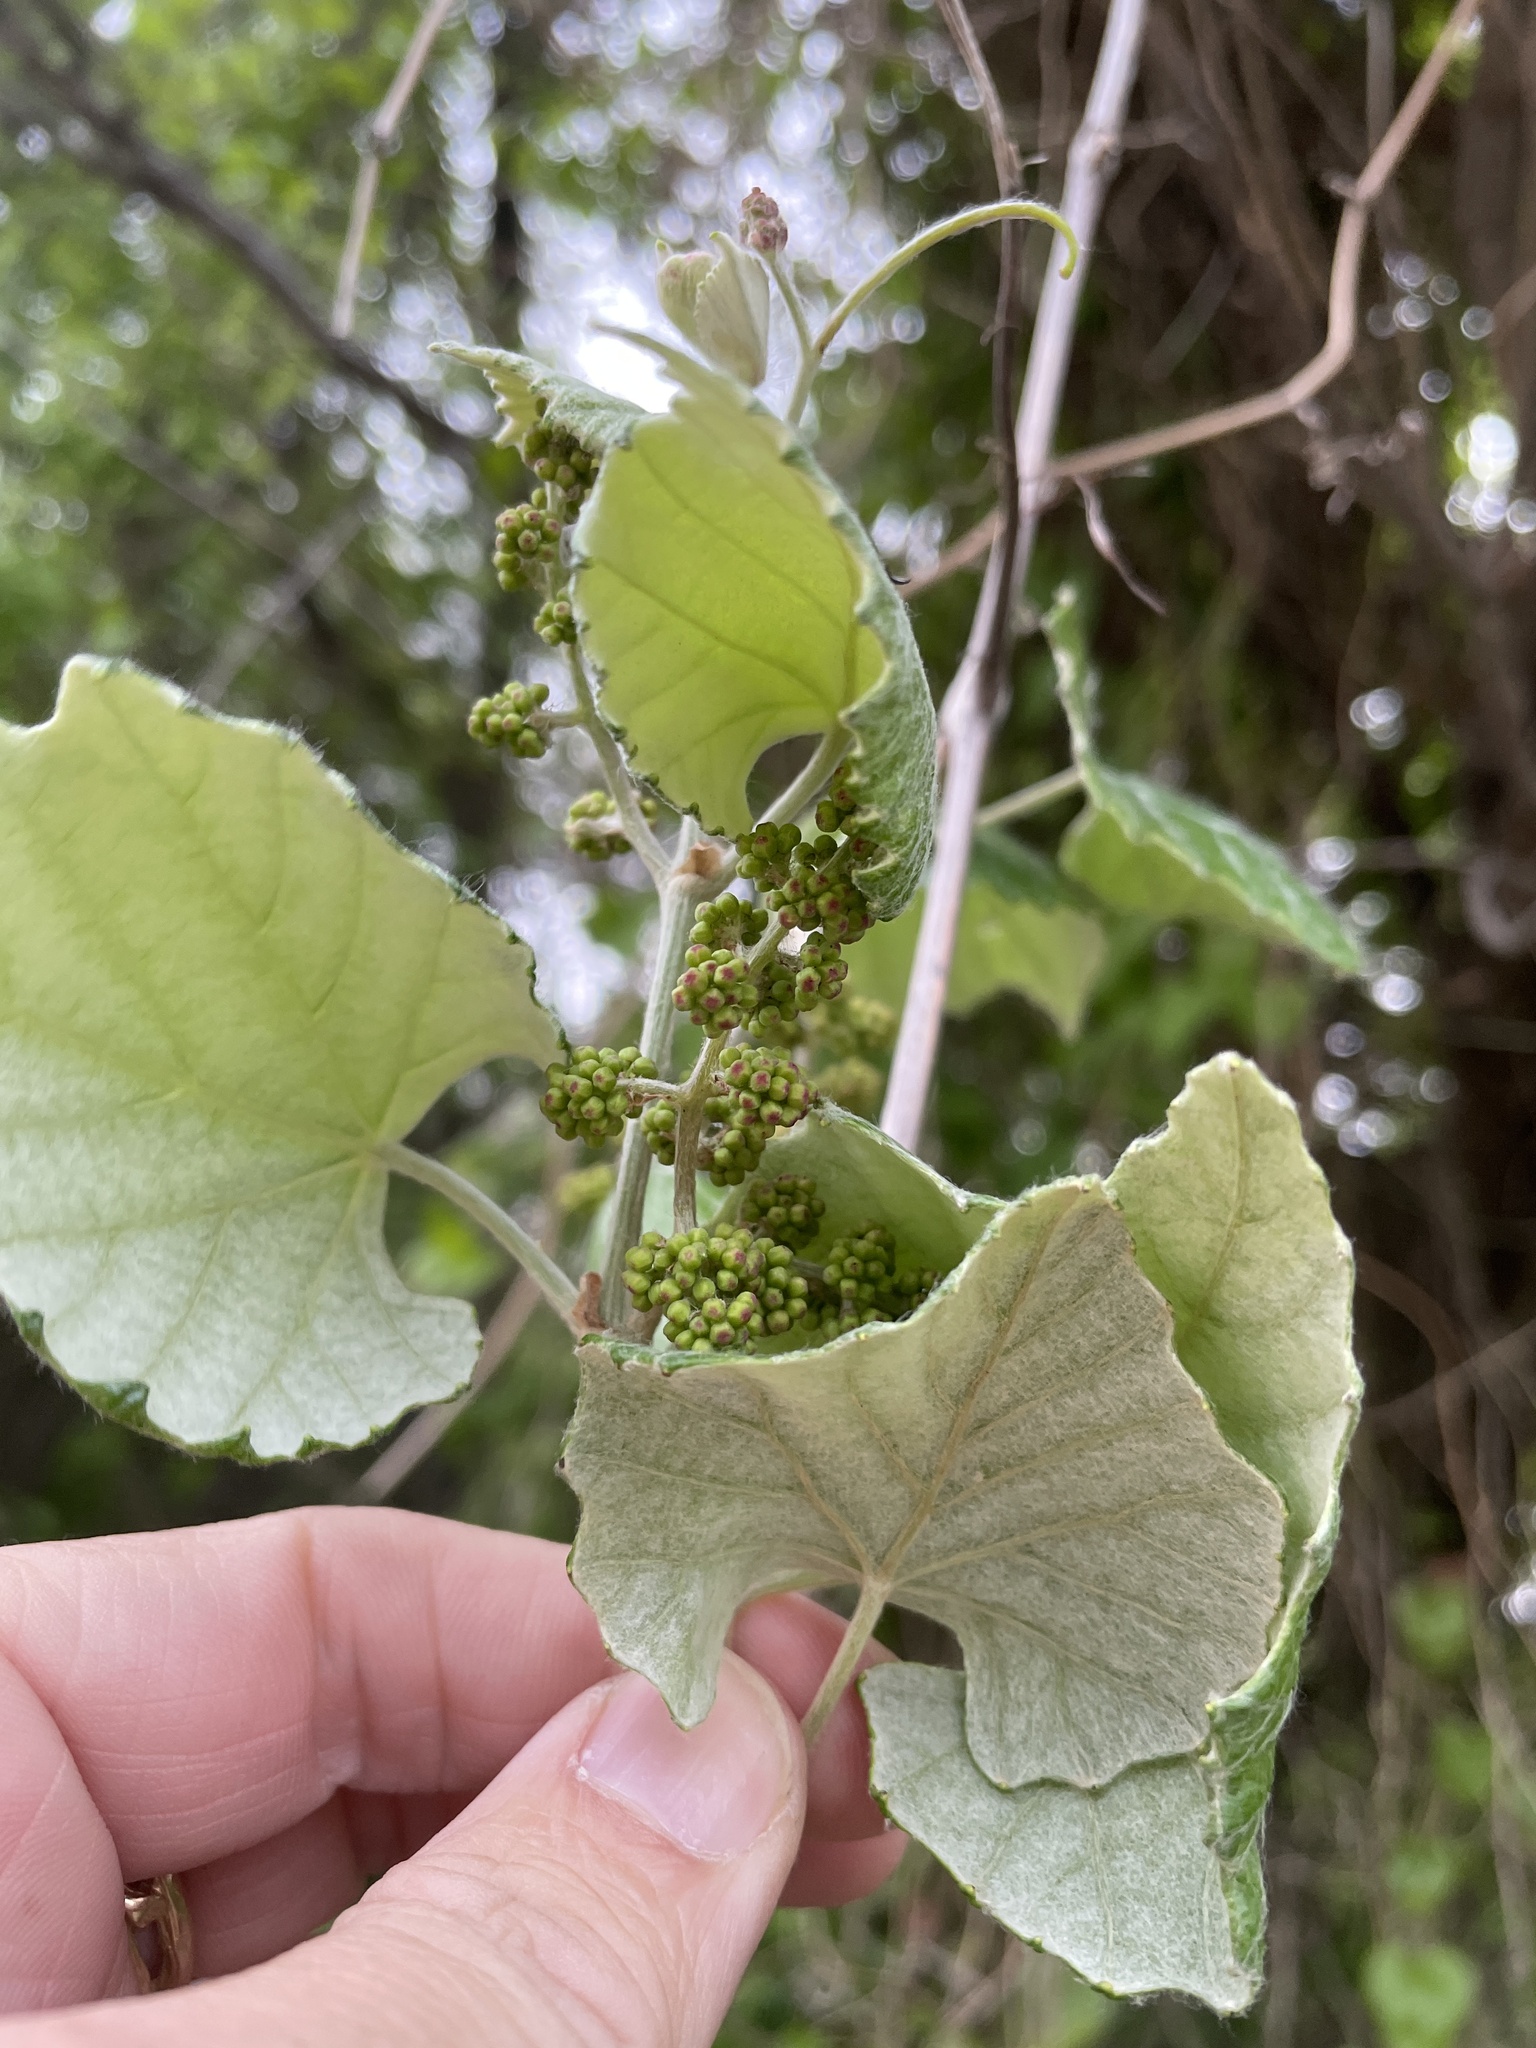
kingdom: Plantae
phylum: Tracheophyta
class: Magnoliopsida
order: Vitales
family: Vitaceae
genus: Vitis
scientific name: Vitis mustangensis
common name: Mustang grape
